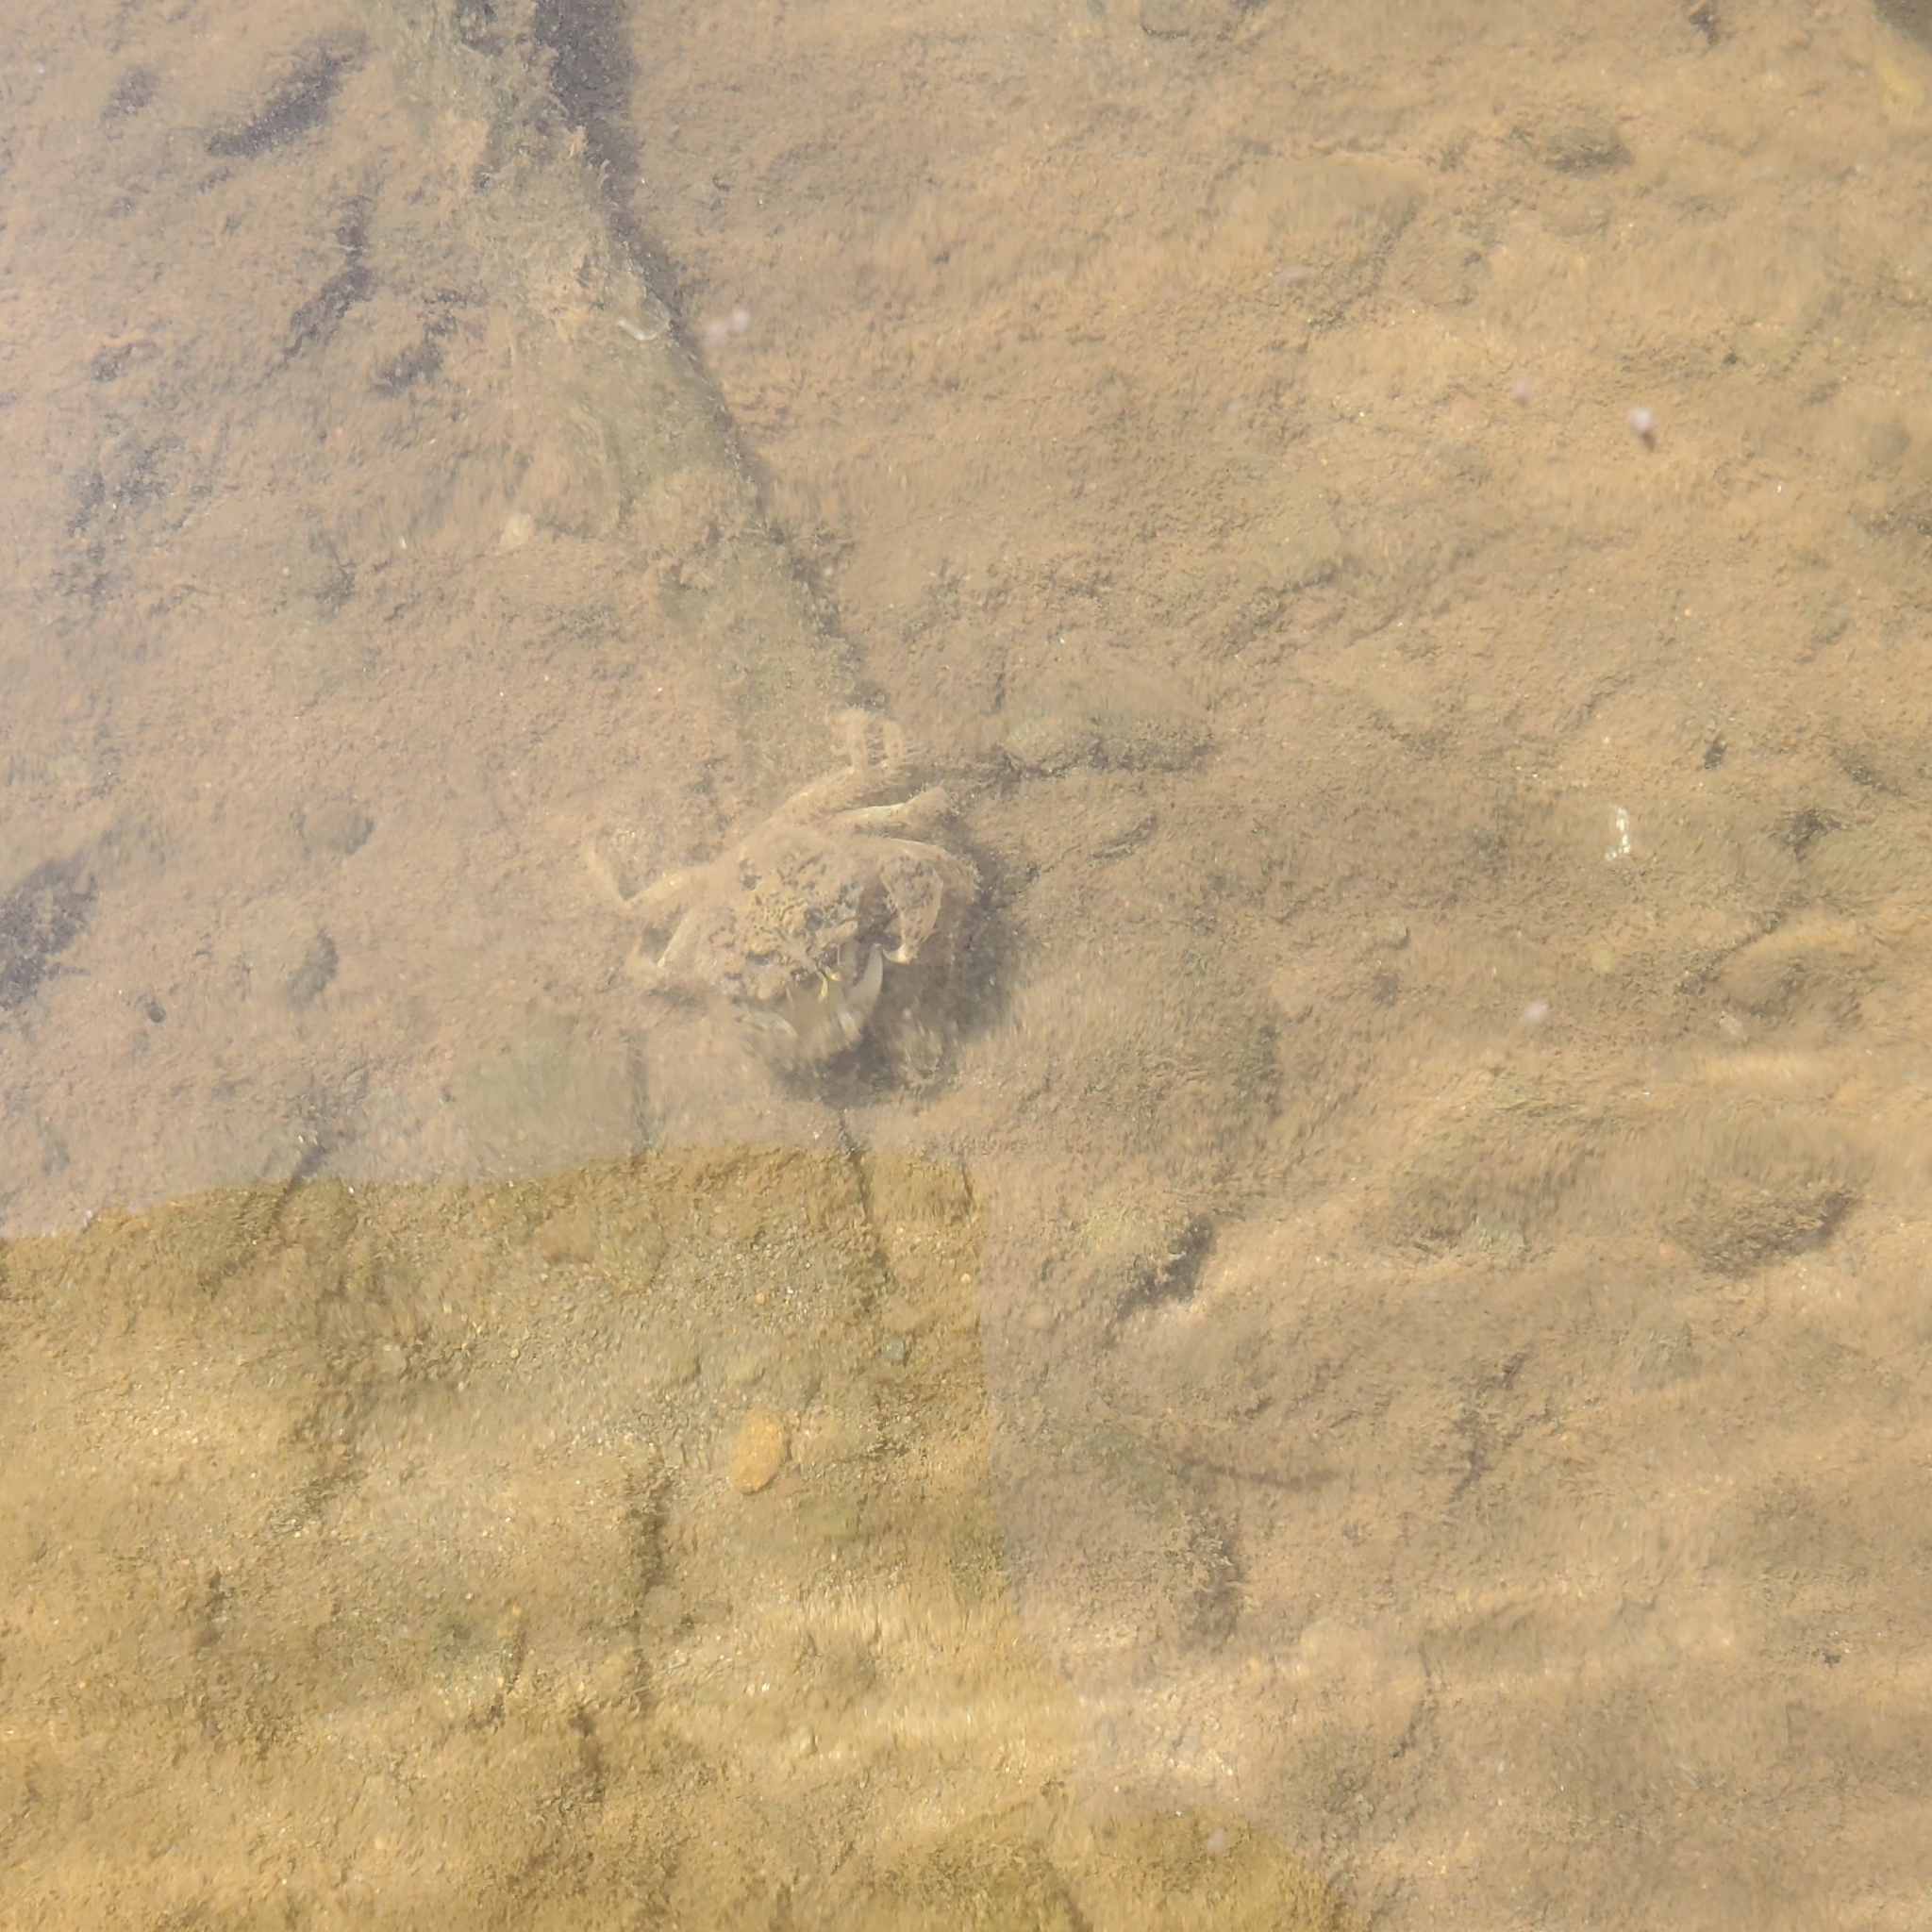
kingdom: Animalia
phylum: Arthropoda
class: Malacostraca
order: Decapoda
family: Carcinidae
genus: Carcinus
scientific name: Carcinus maenas
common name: European green crab
